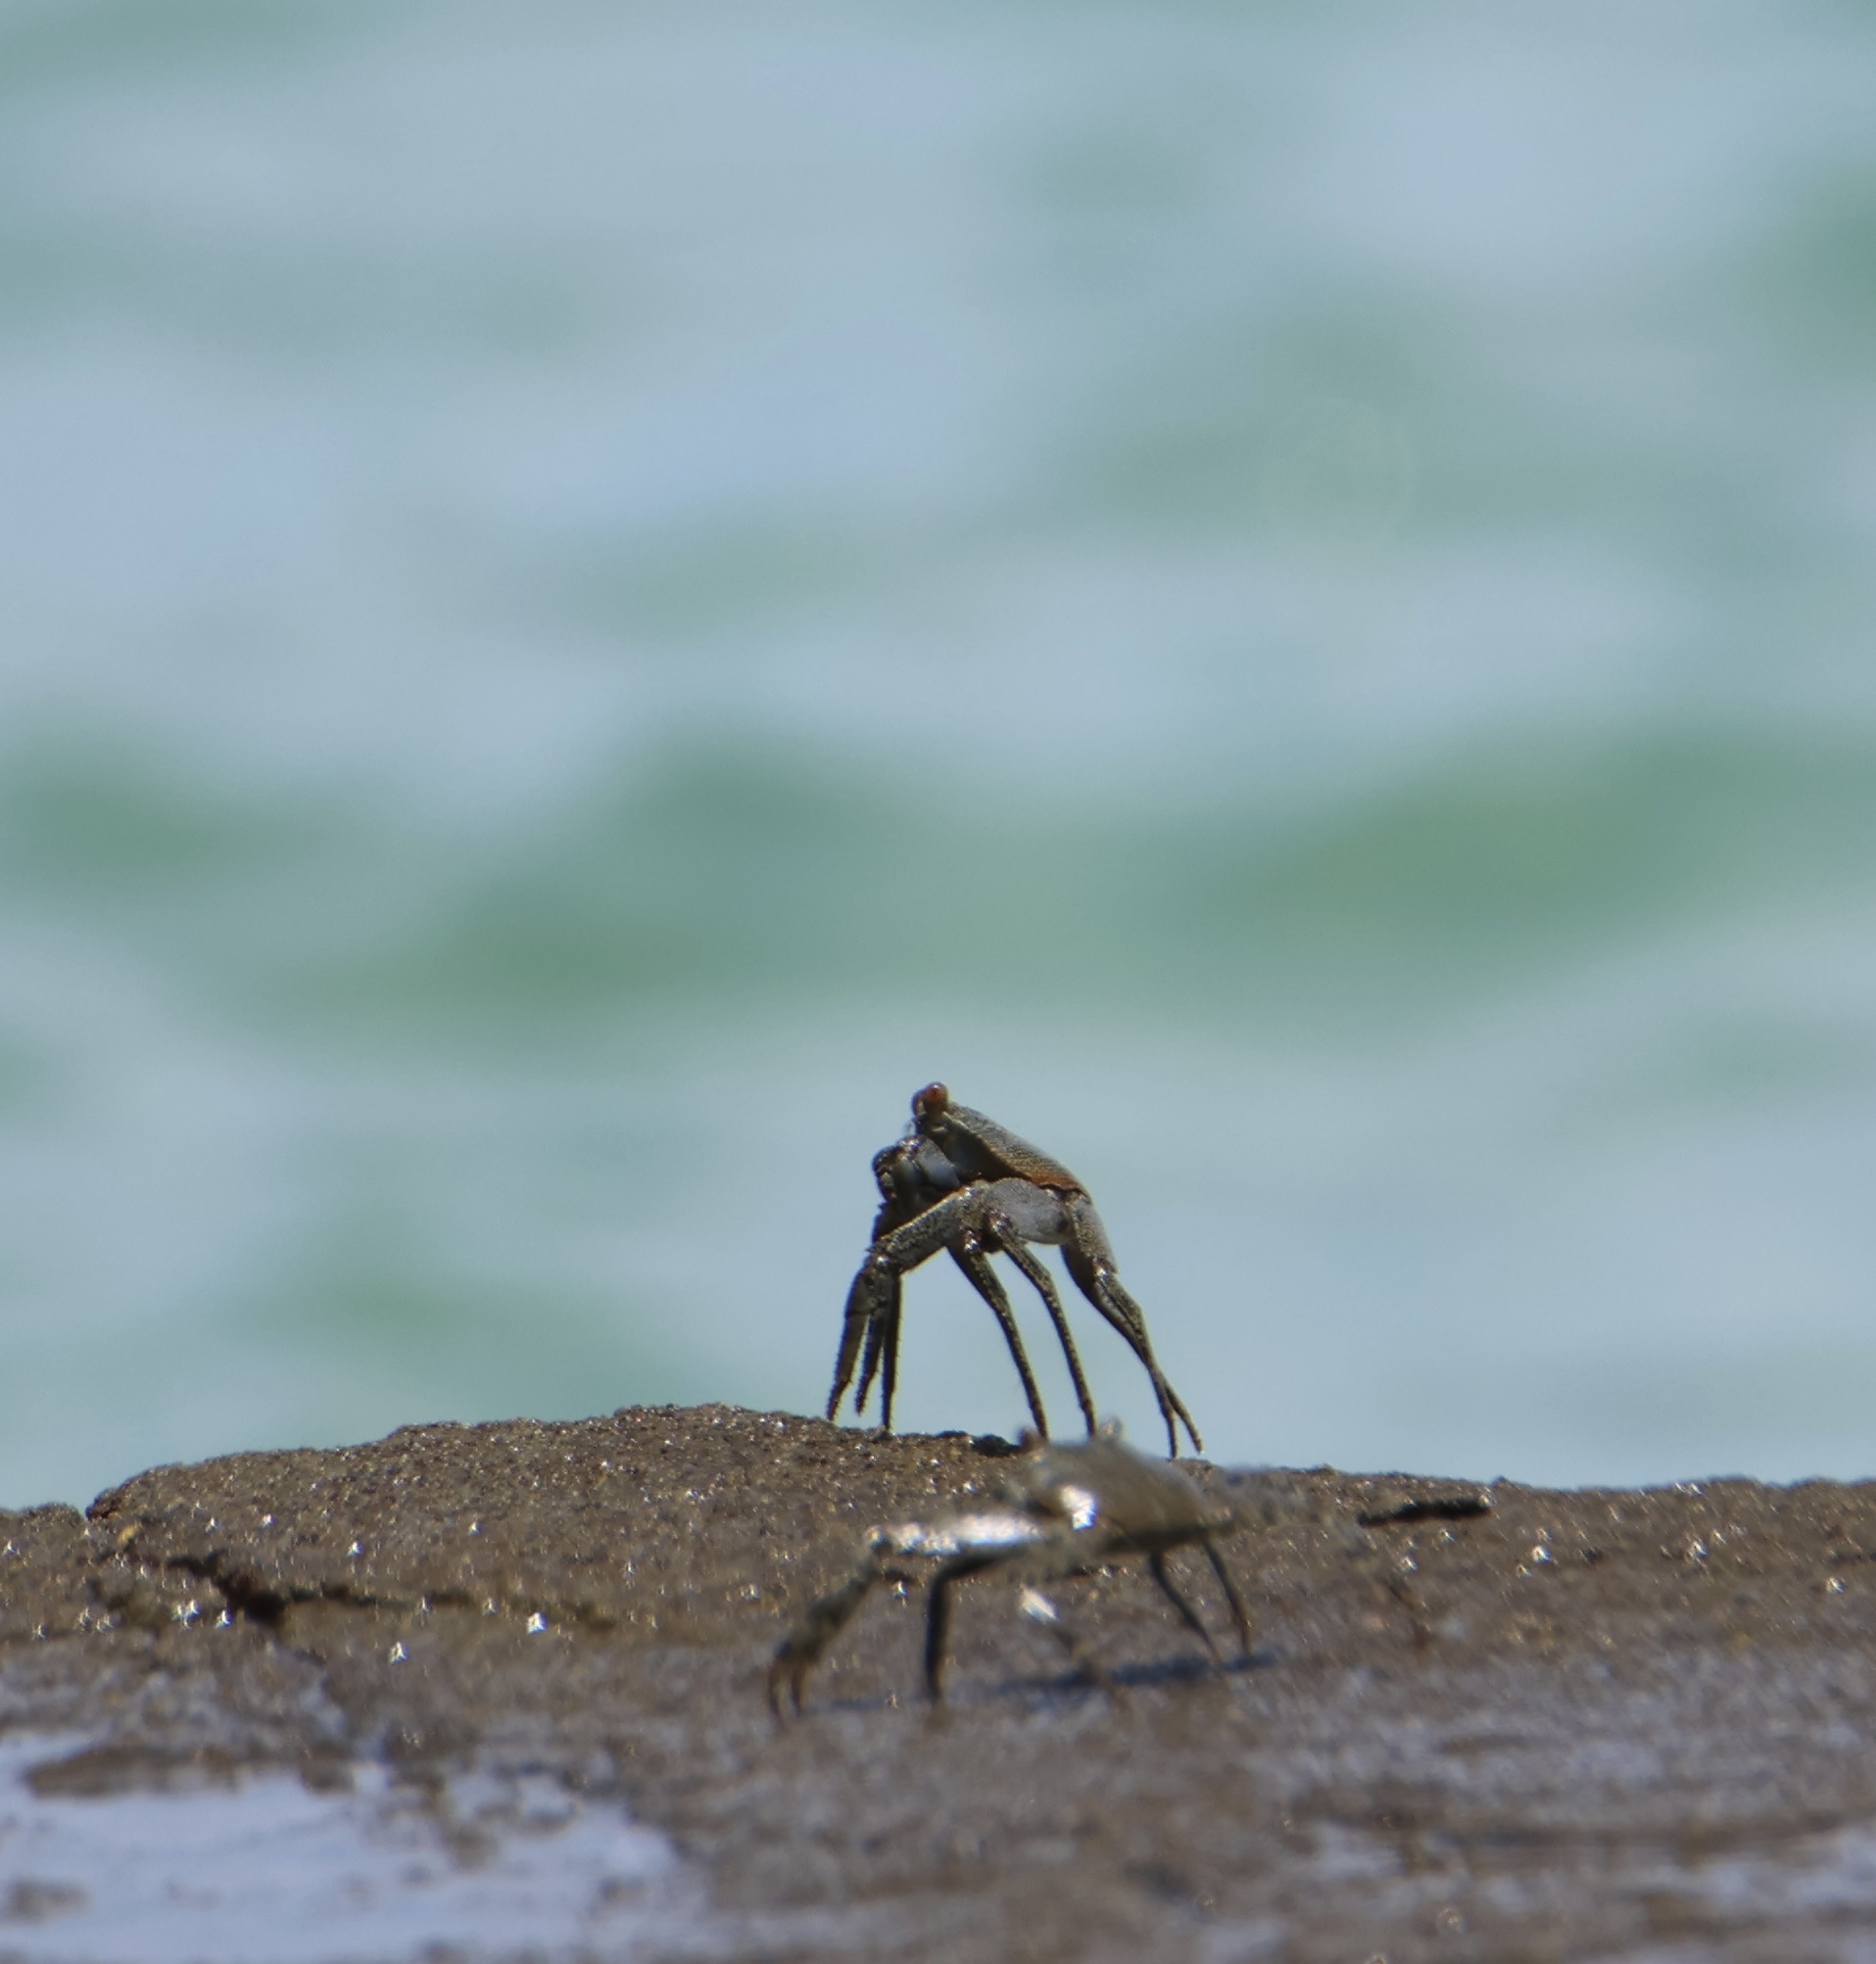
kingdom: Animalia
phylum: Arthropoda
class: Malacostraca
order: Decapoda
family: Grapsidae
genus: Grapsus
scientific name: Grapsus grapsus
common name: Sally lightfoot
